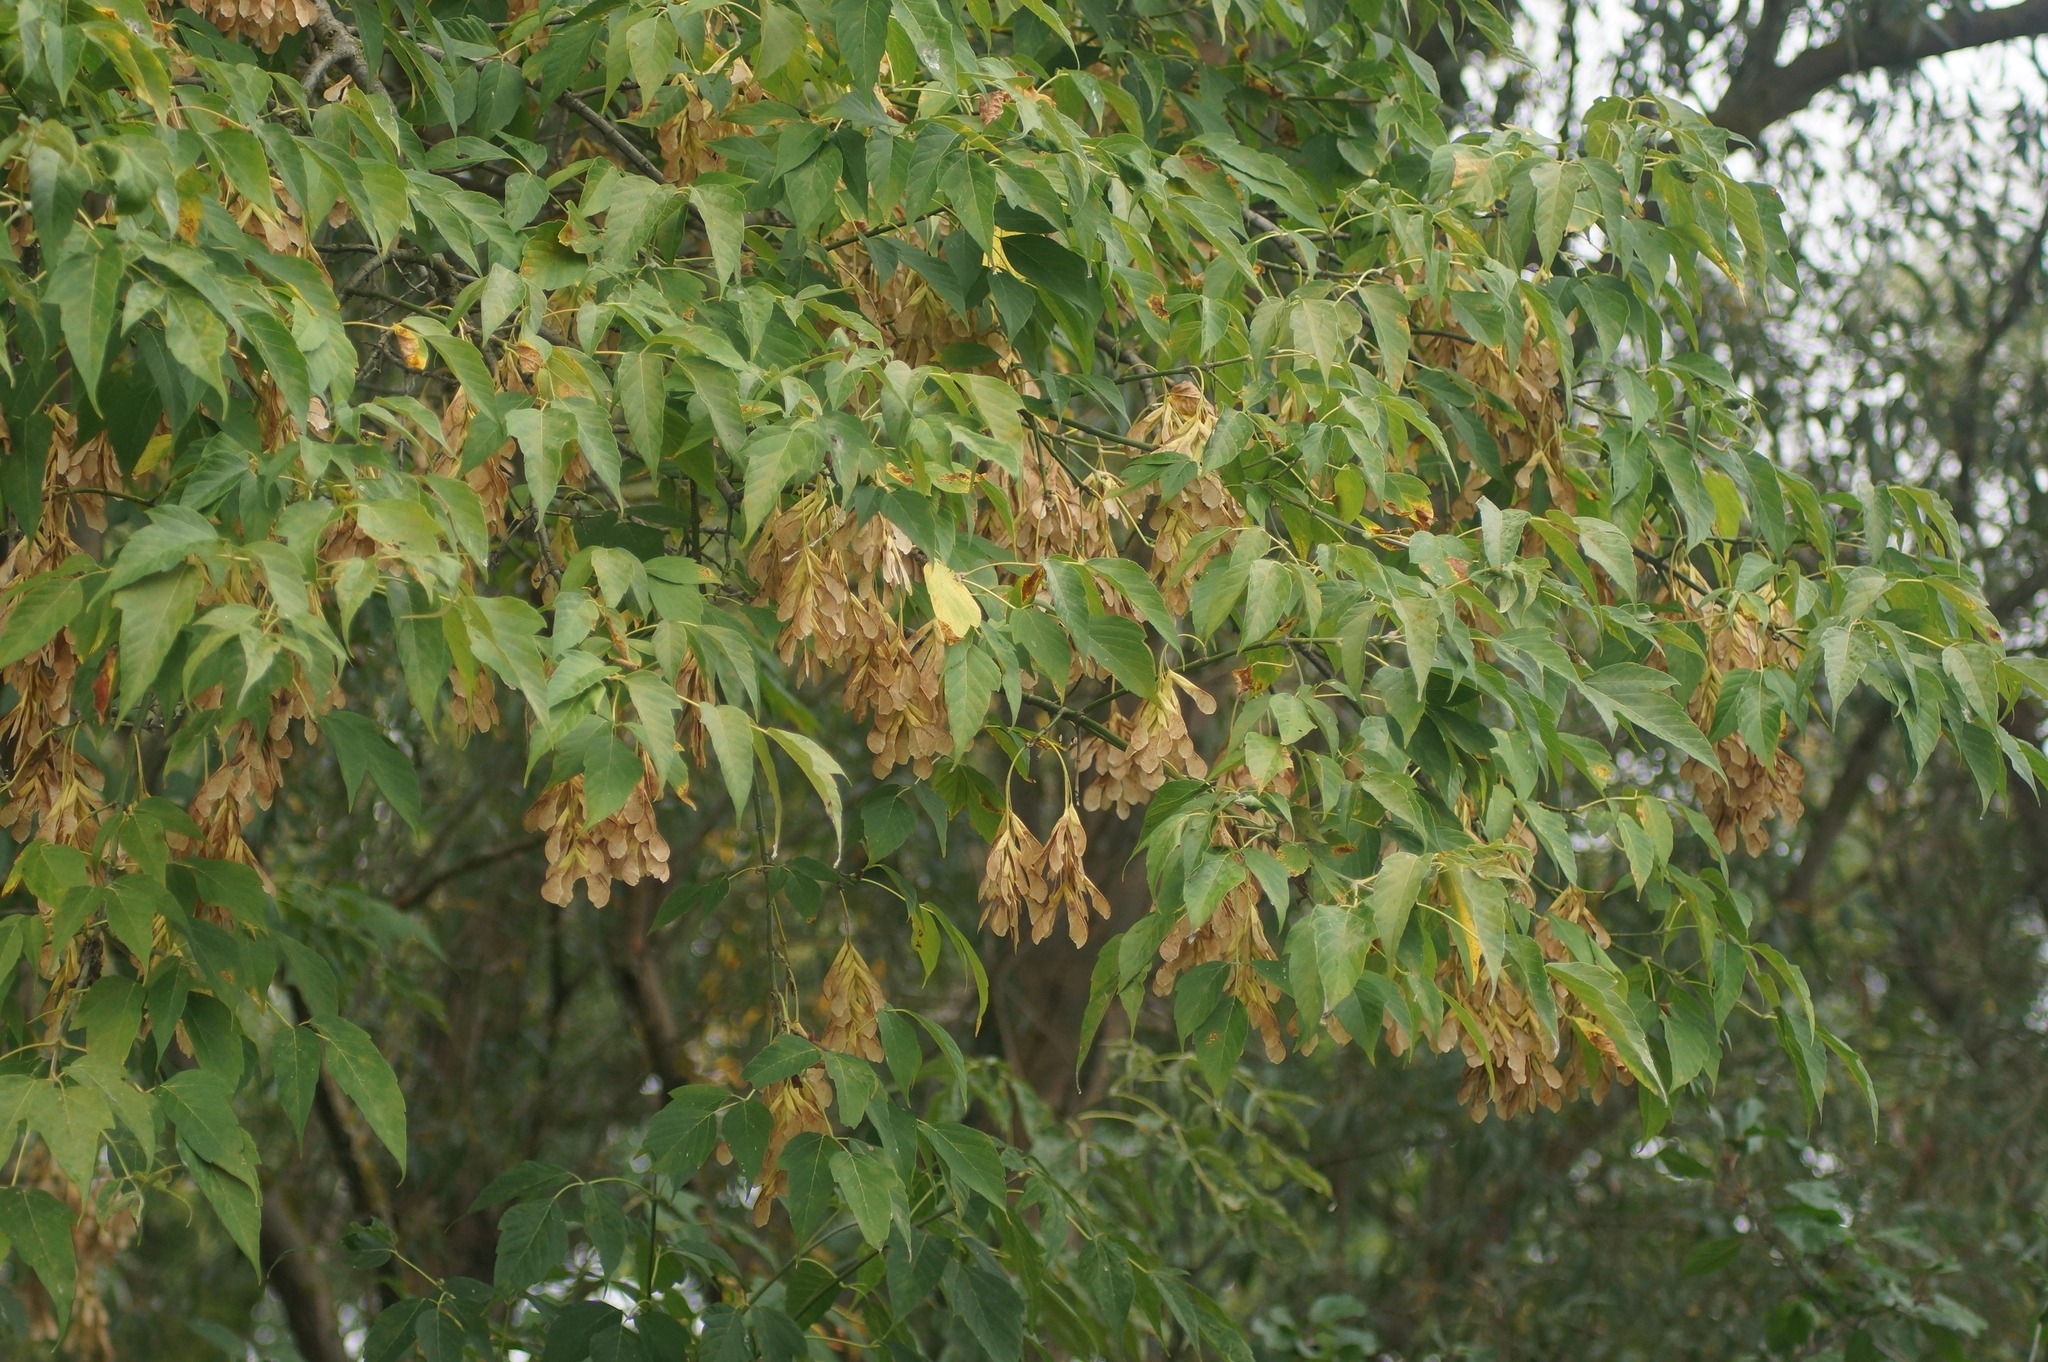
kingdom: Plantae
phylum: Tracheophyta
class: Magnoliopsida
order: Sapindales
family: Sapindaceae
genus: Acer
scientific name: Acer negundo
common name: Ashleaf maple
